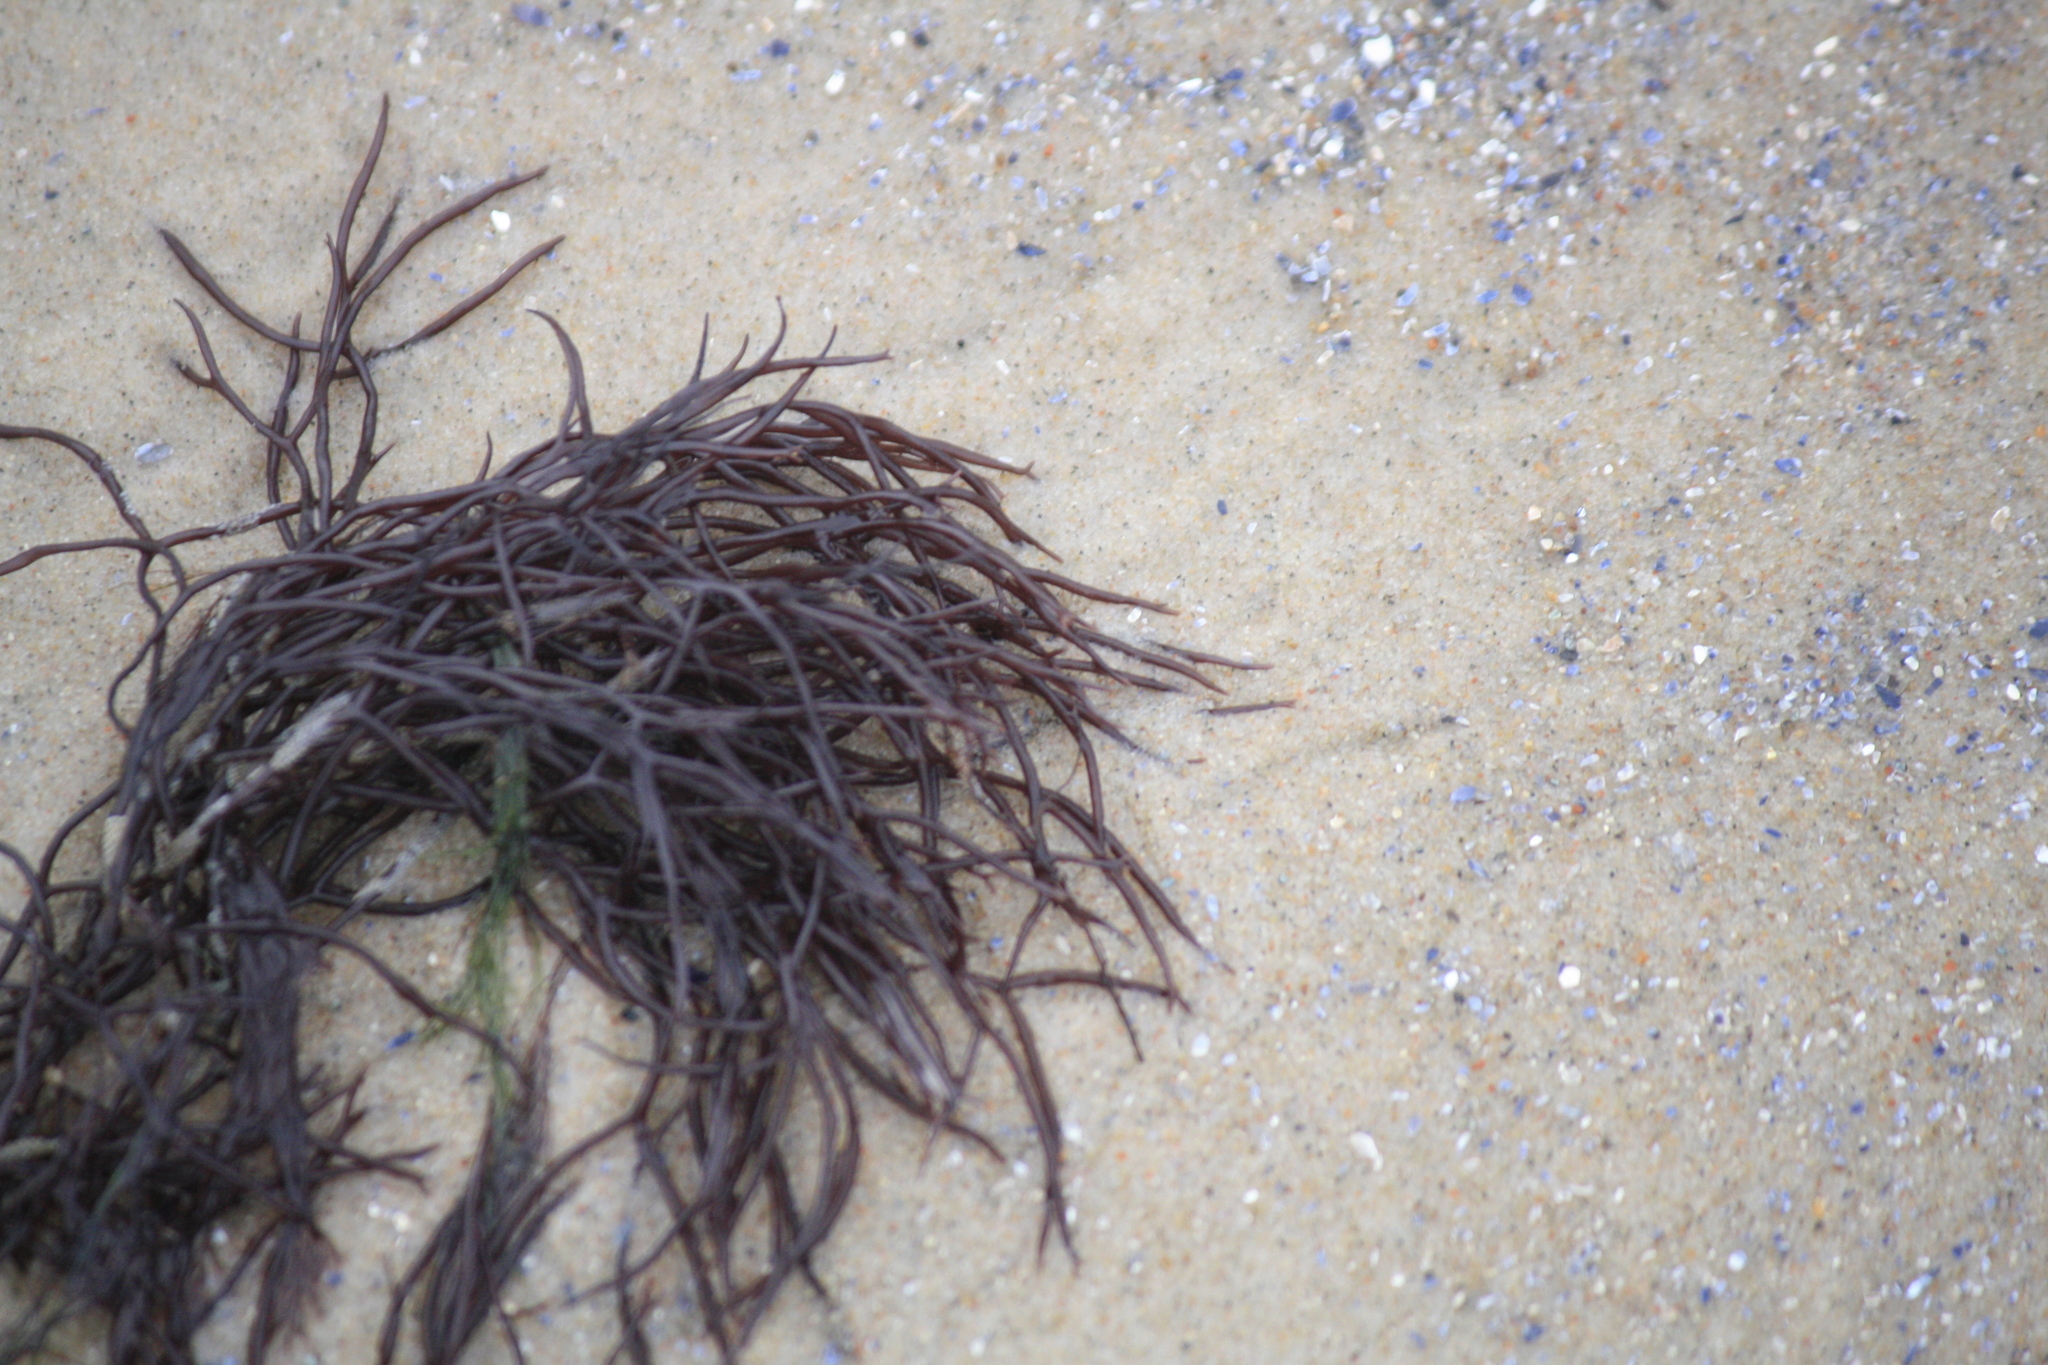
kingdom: Plantae
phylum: Rhodophyta
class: Florideophyceae
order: Gigartinales
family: Furcellariaceae
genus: Furcellaria
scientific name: Furcellaria lumbricalis
